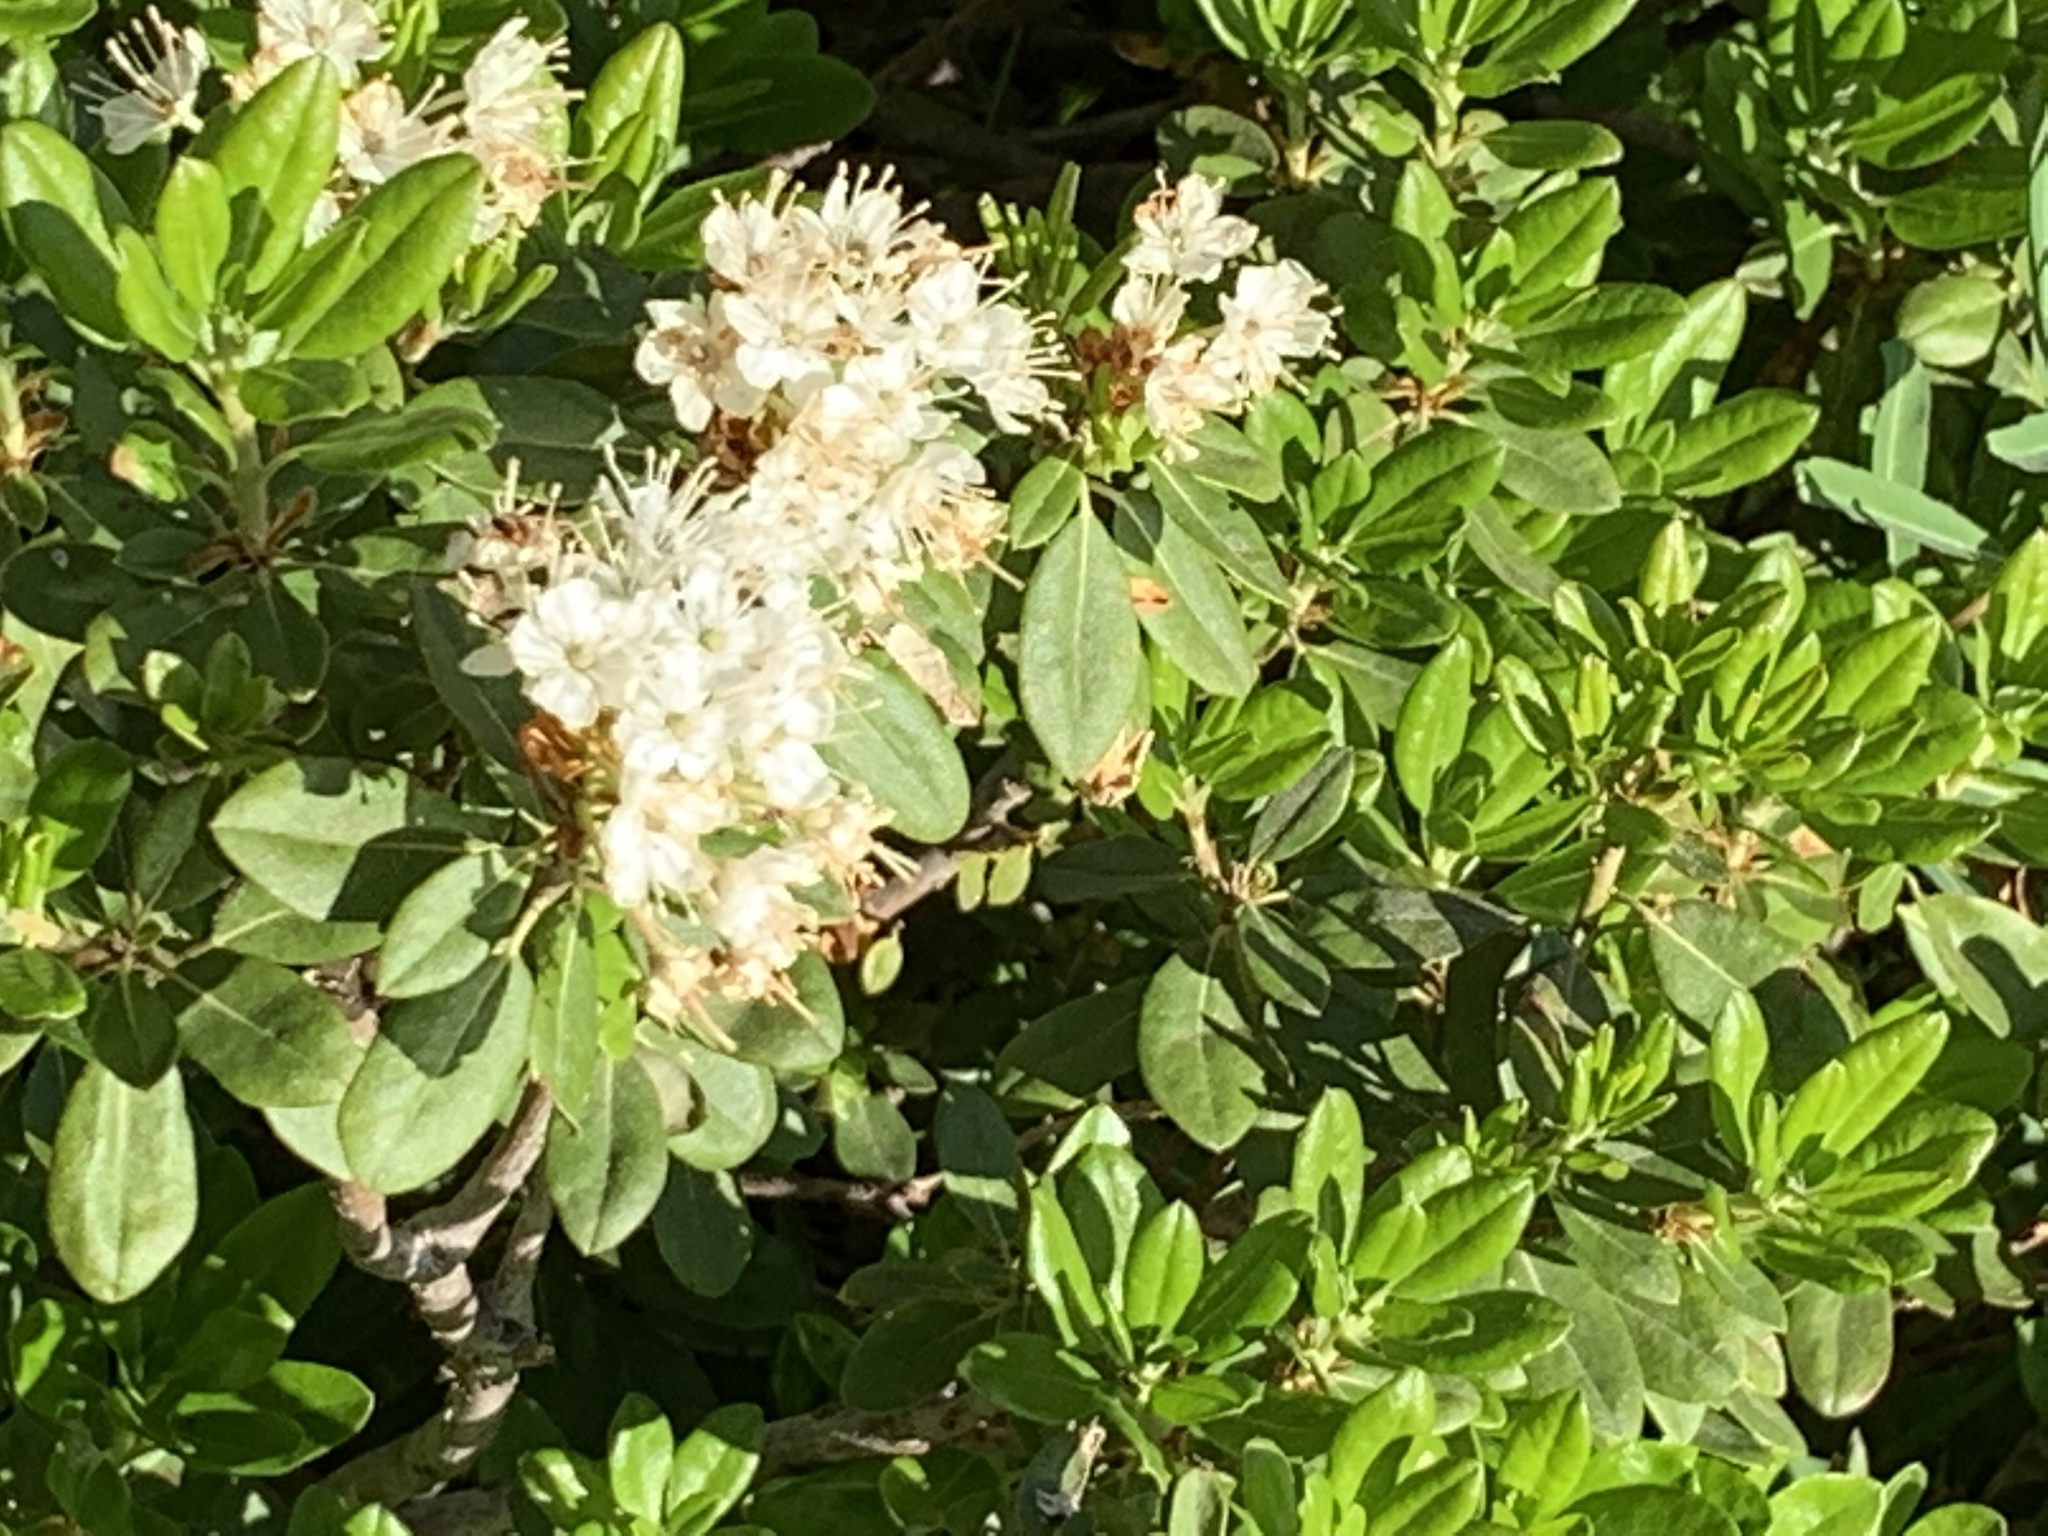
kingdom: Plantae
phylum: Tracheophyta
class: Magnoliopsida
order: Ericales
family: Ericaceae
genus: Rhododendron
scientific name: Rhododendron columbianum
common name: Western labrador tea
